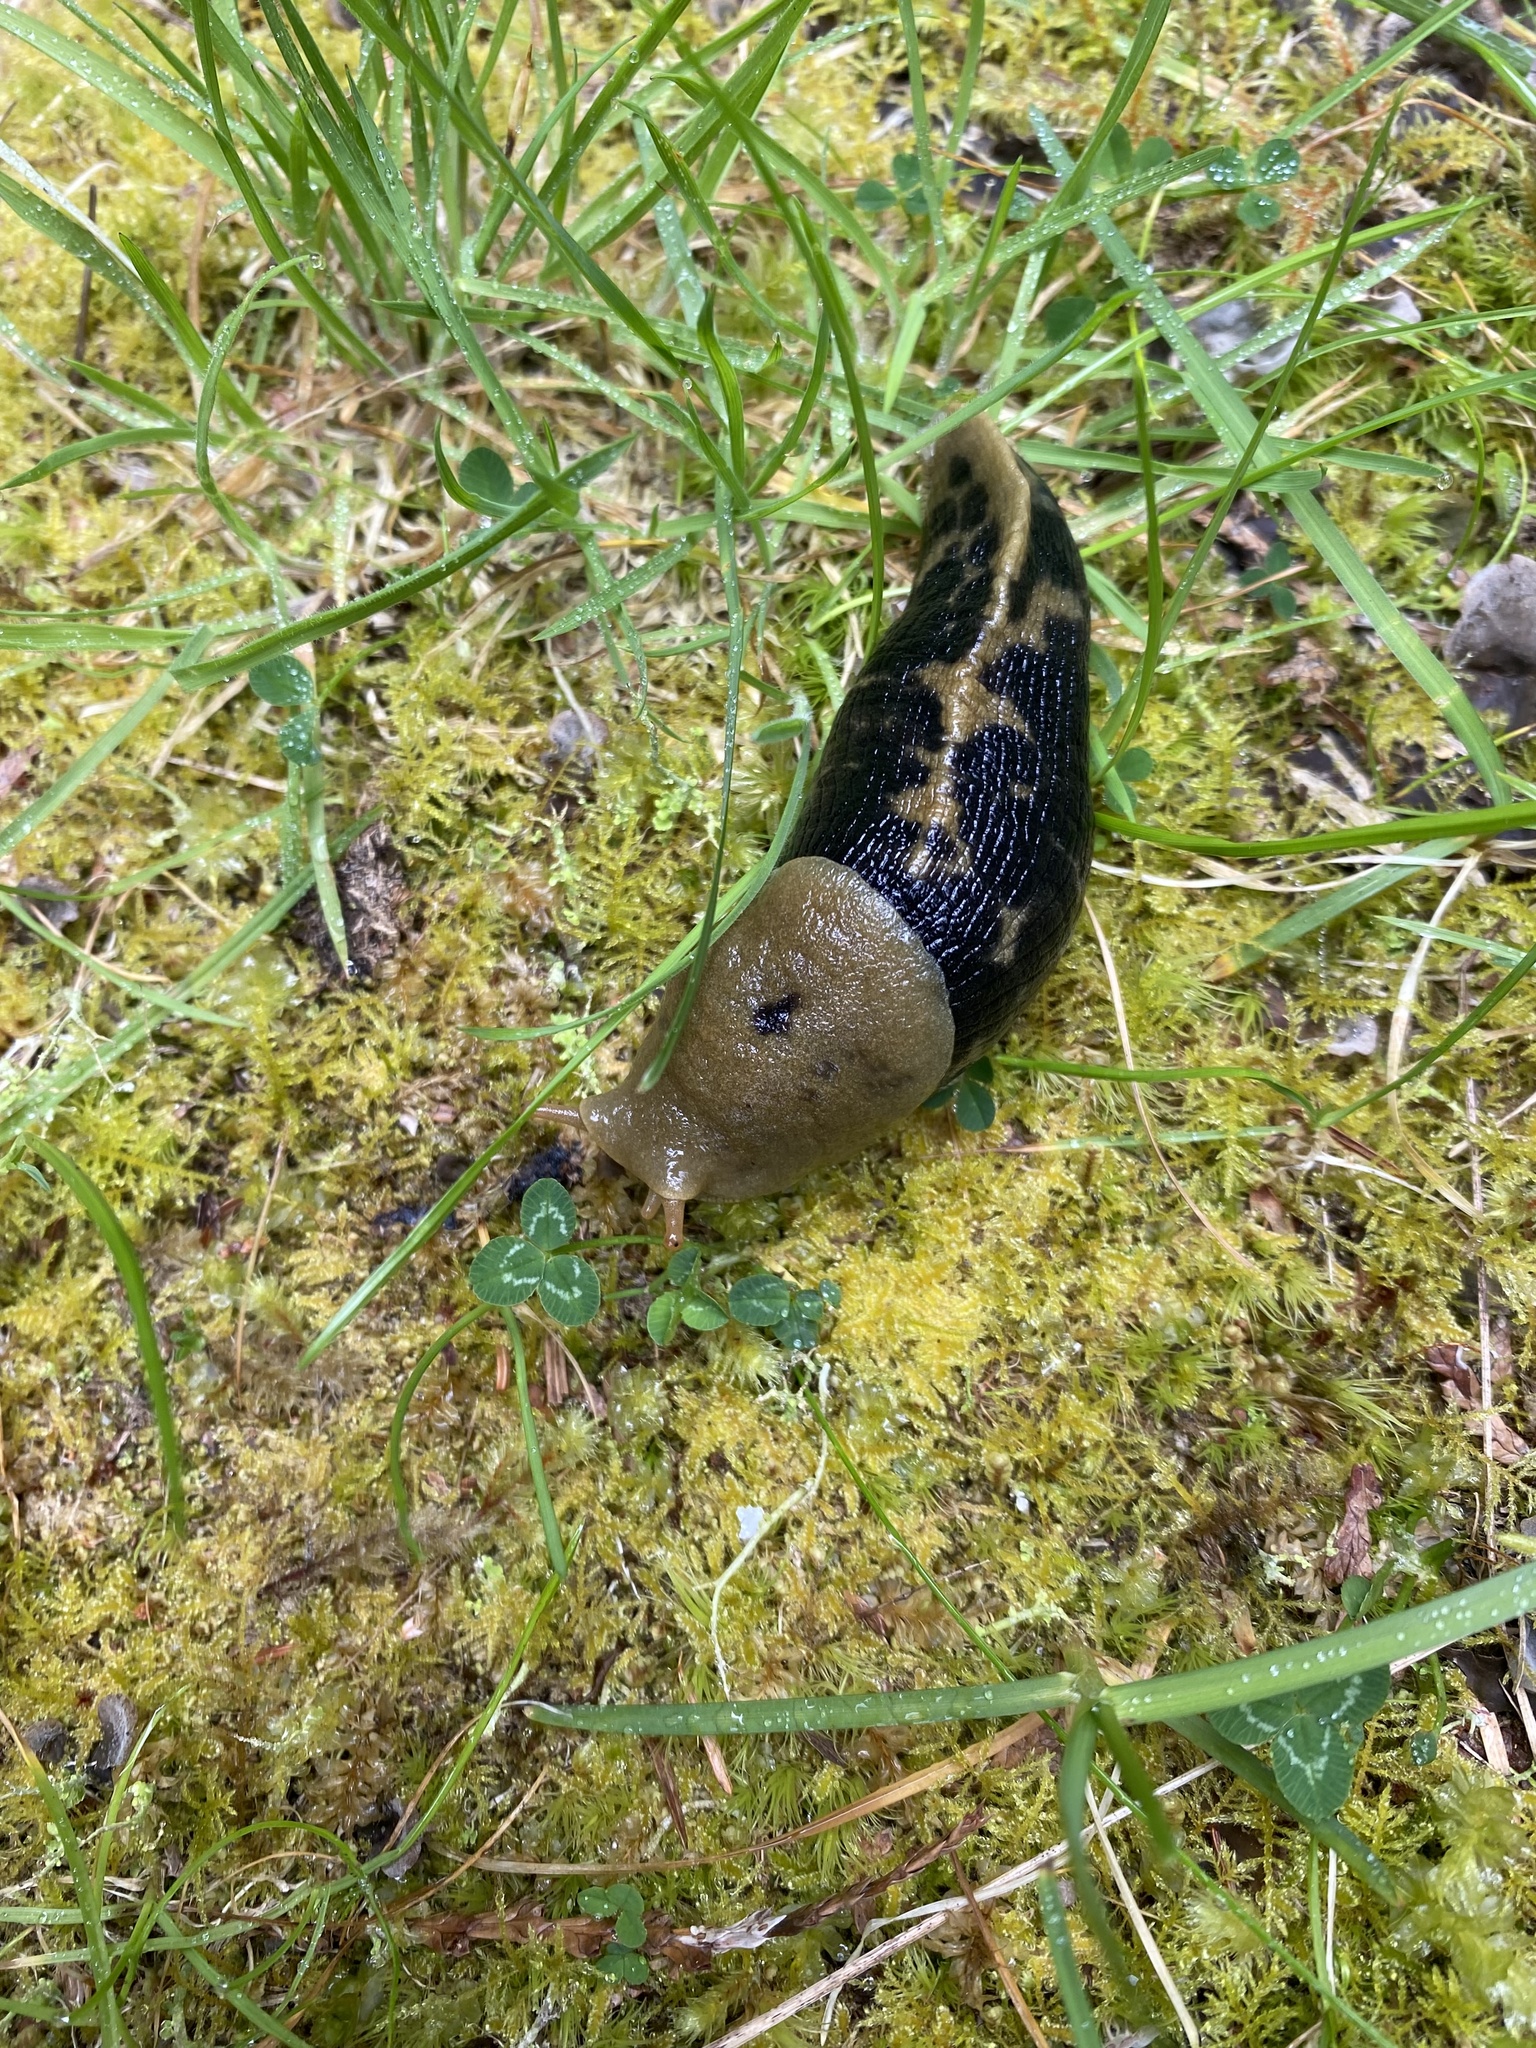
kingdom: Animalia
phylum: Mollusca
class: Gastropoda
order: Stylommatophora
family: Ariolimacidae
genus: Ariolimax
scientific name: Ariolimax columbianus
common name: Pacific banana slug
